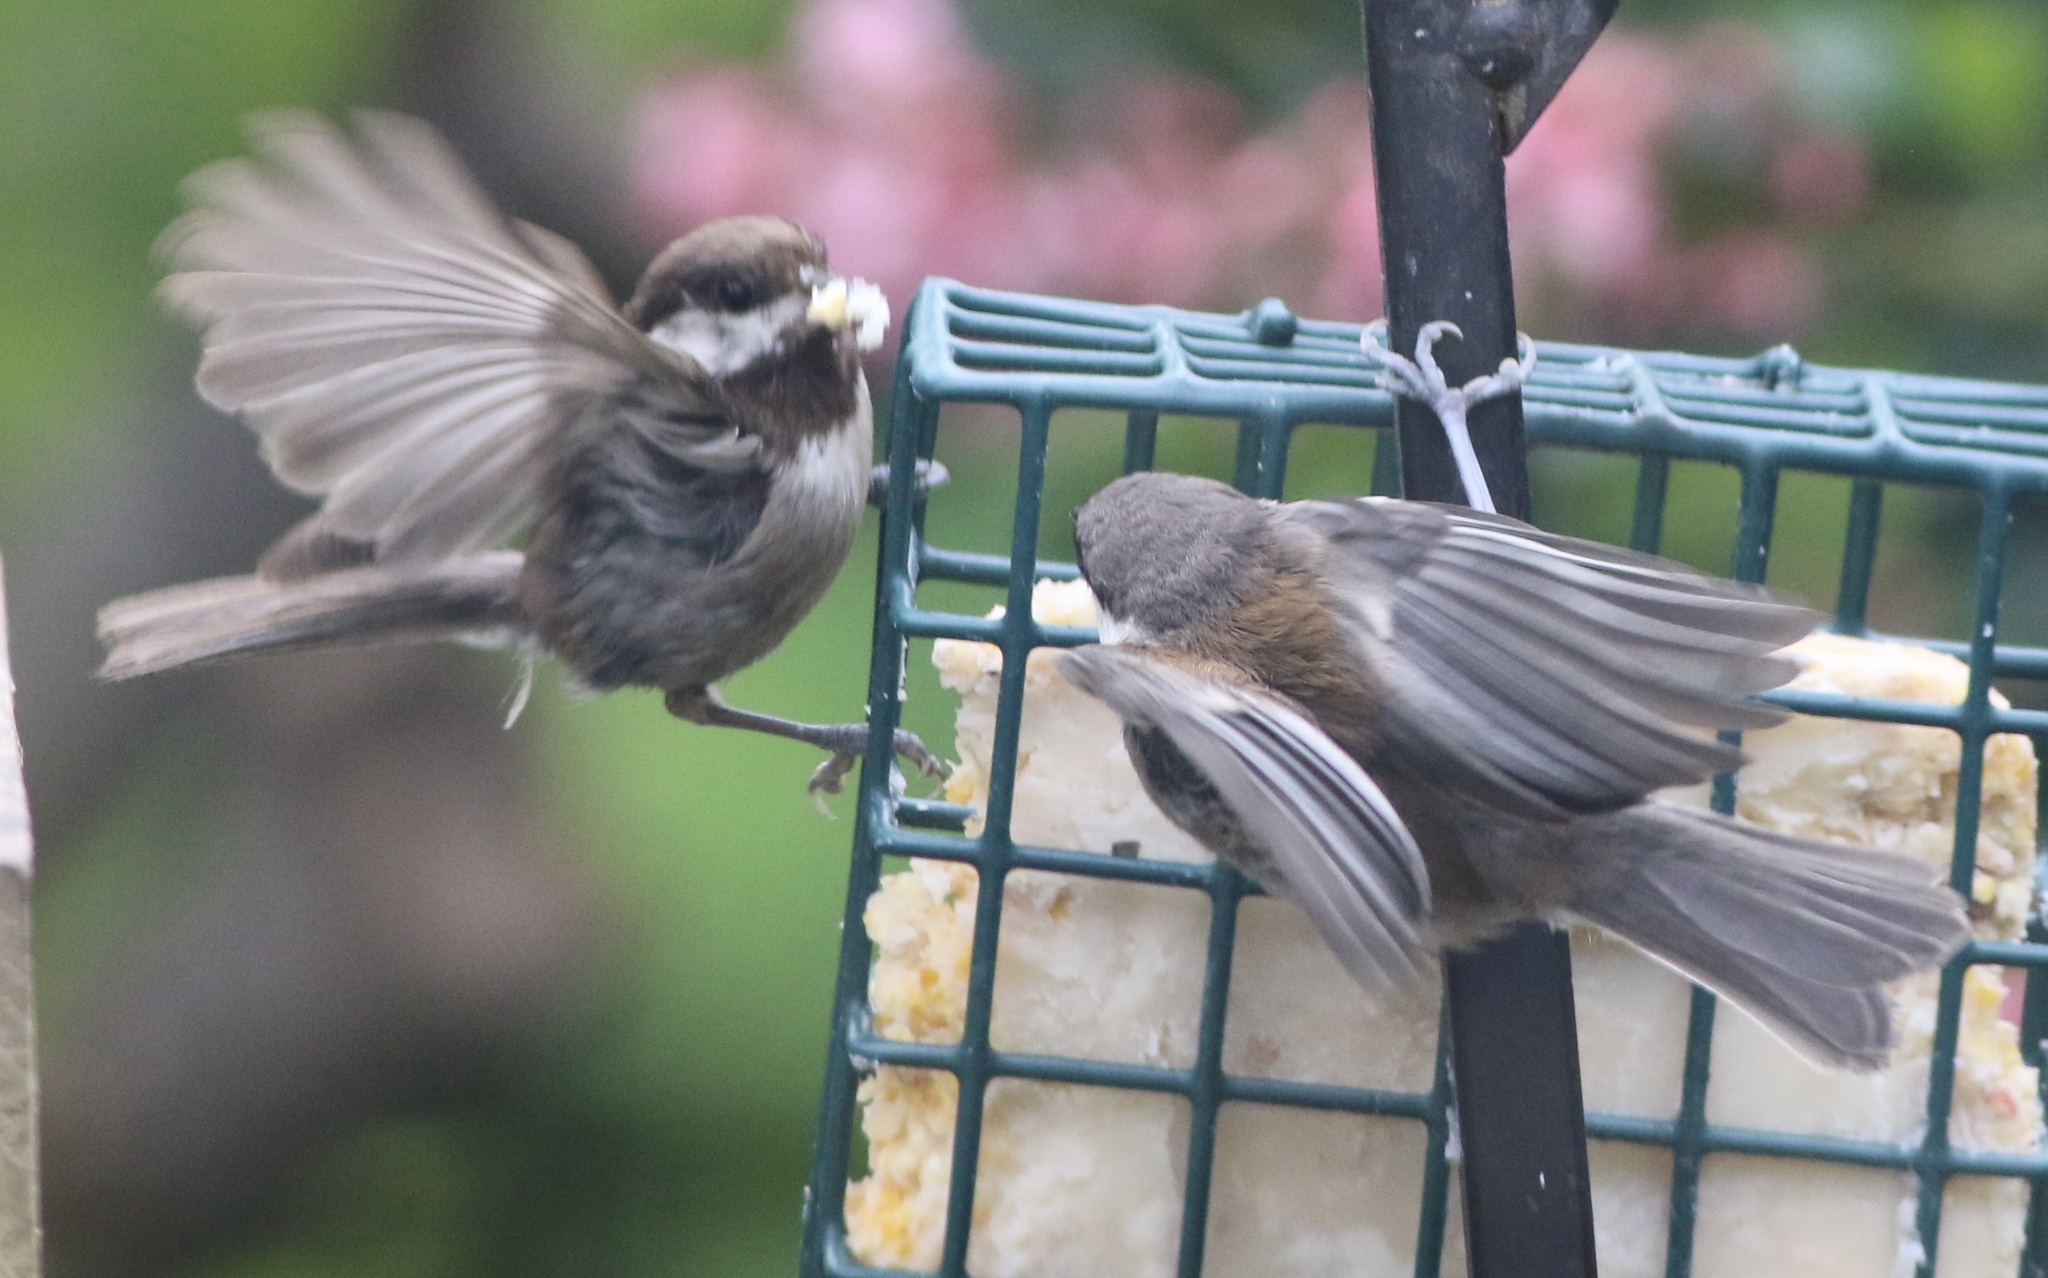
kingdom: Animalia
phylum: Chordata
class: Aves
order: Passeriformes
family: Paridae
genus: Poecile
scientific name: Poecile rufescens
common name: Chestnut-backed chickadee
